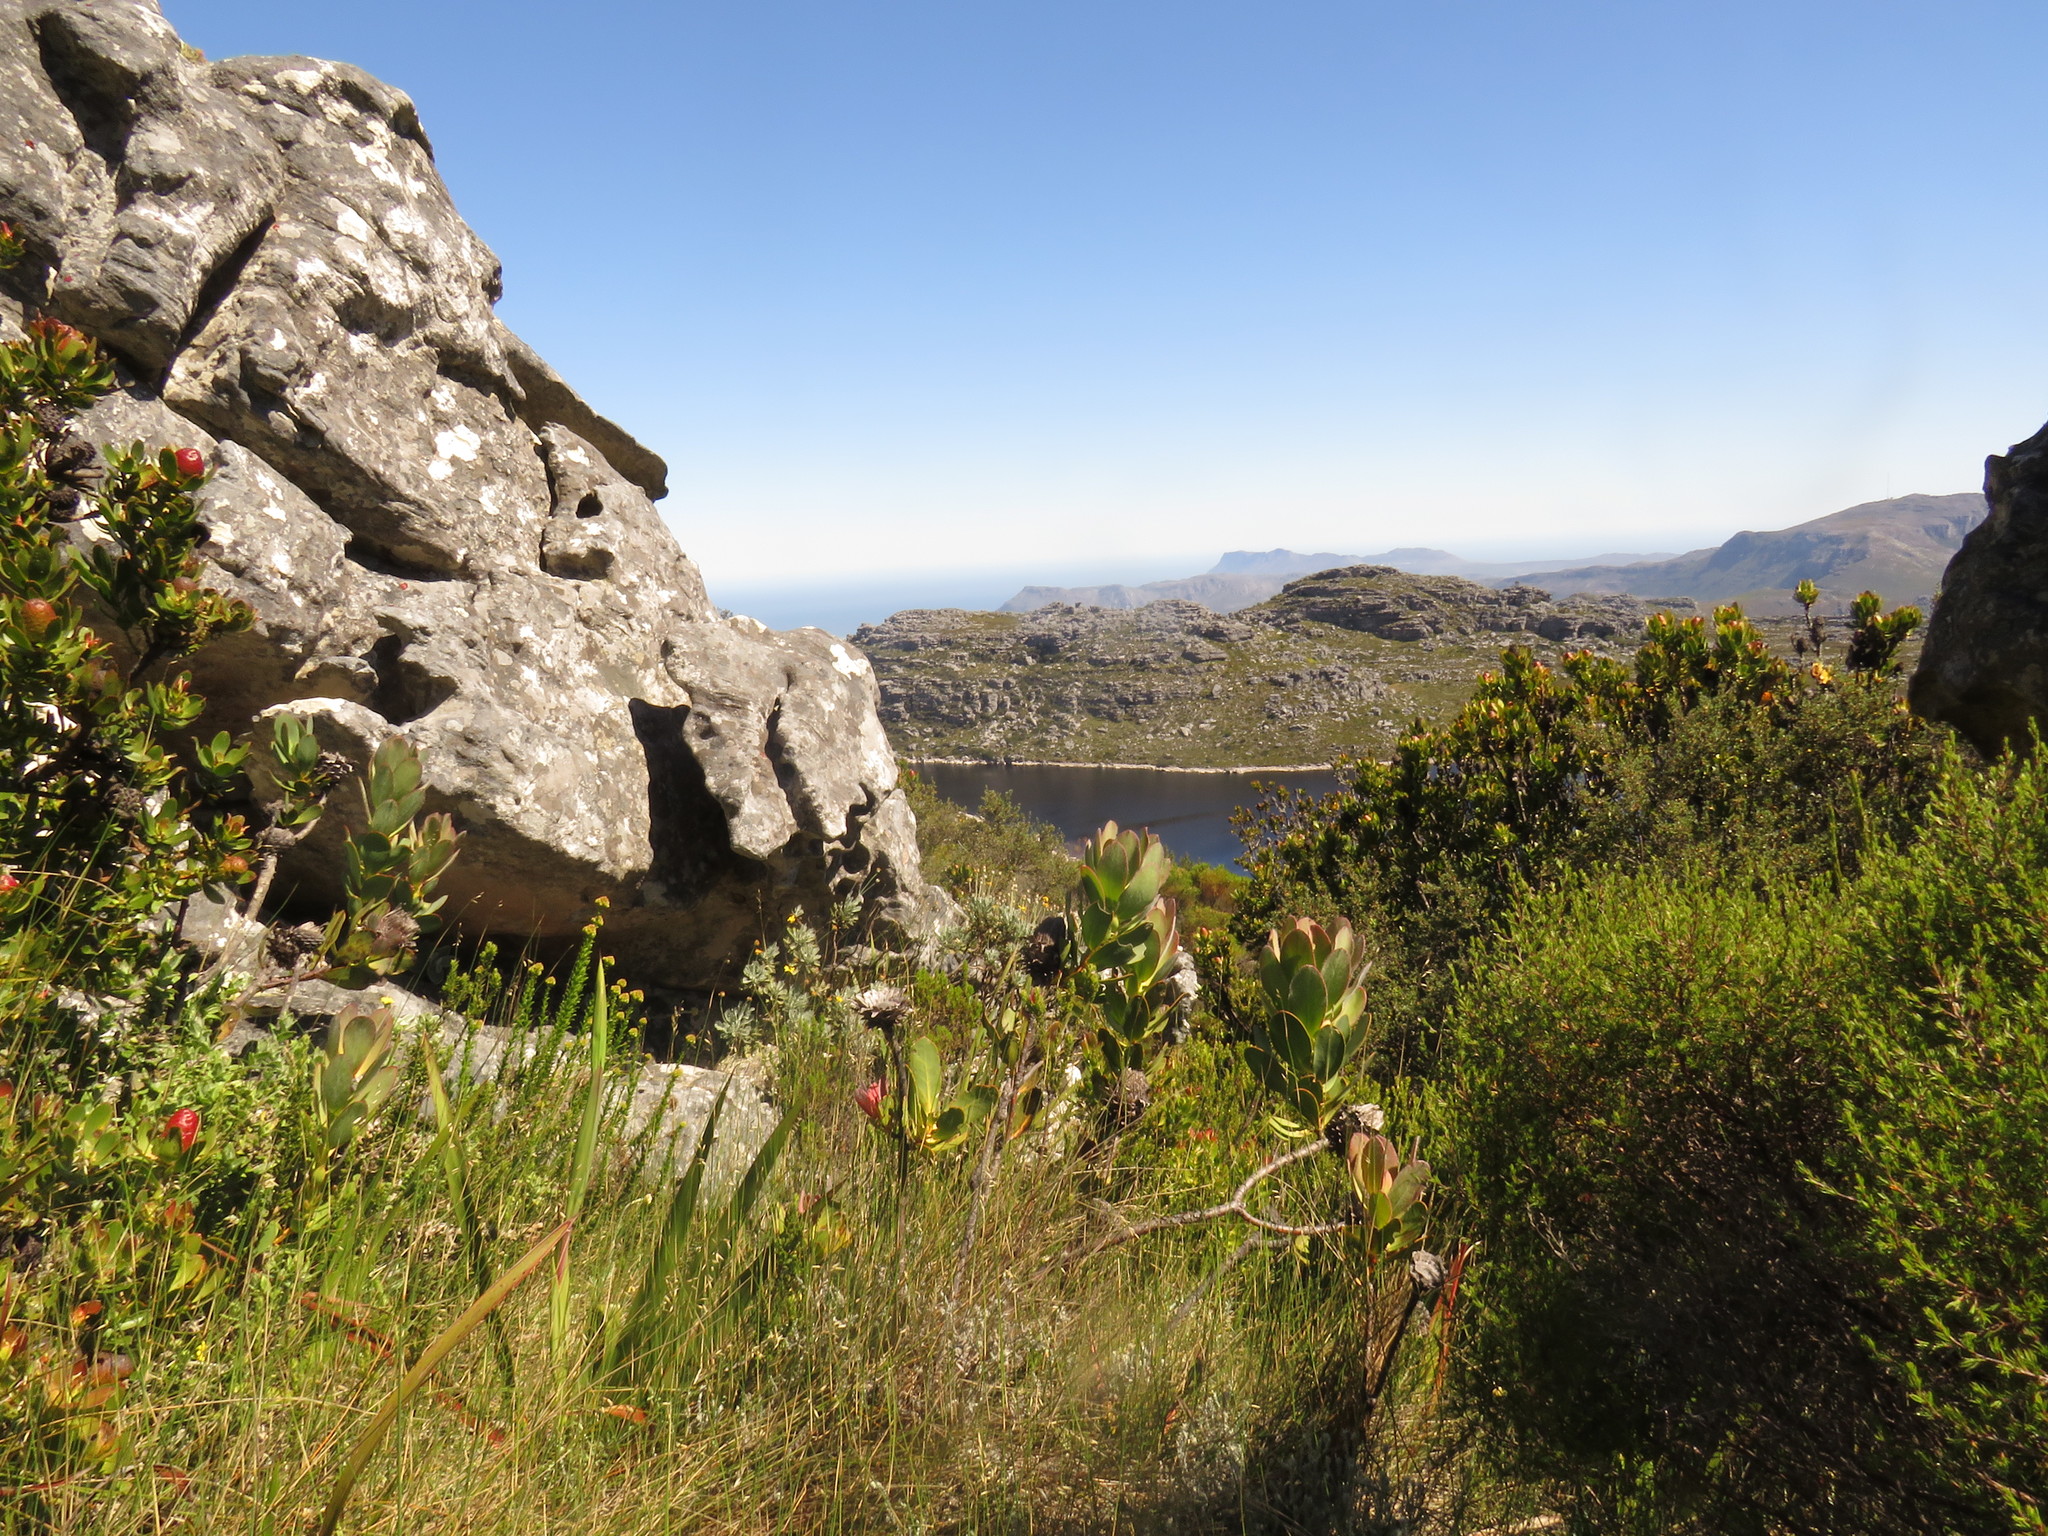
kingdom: Plantae
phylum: Tracheophyta
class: Magnoliopsida
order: Asterales
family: Asteraceae
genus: Euryops
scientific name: Euryops pectinatus
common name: Gray-leaf euryops
